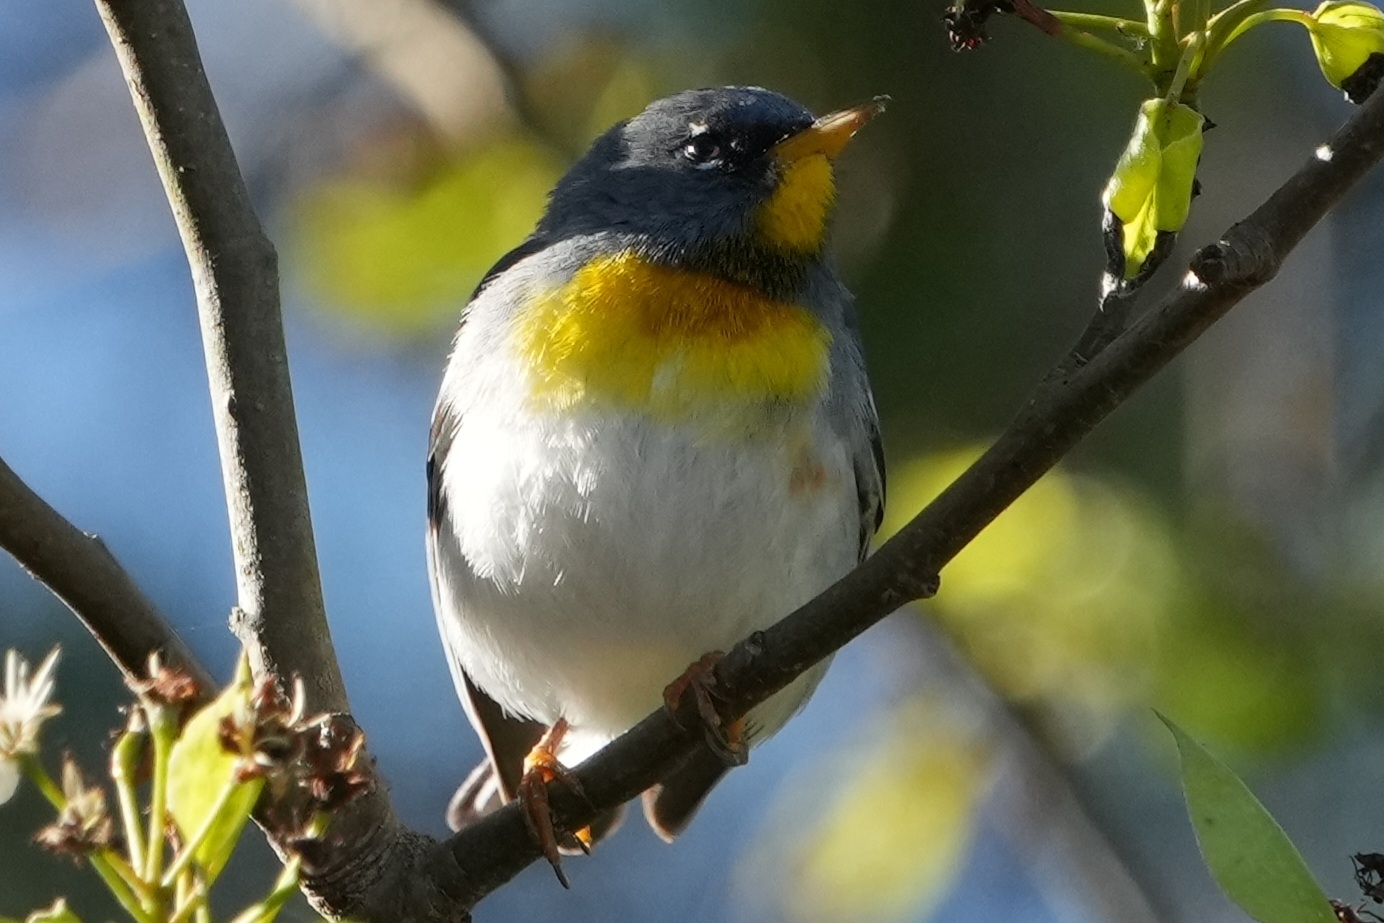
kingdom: Animalia
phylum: Chordata
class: Aves
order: Passeriformes
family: Parulidae
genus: Setophaga
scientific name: Setophaga americana
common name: Northern parula
